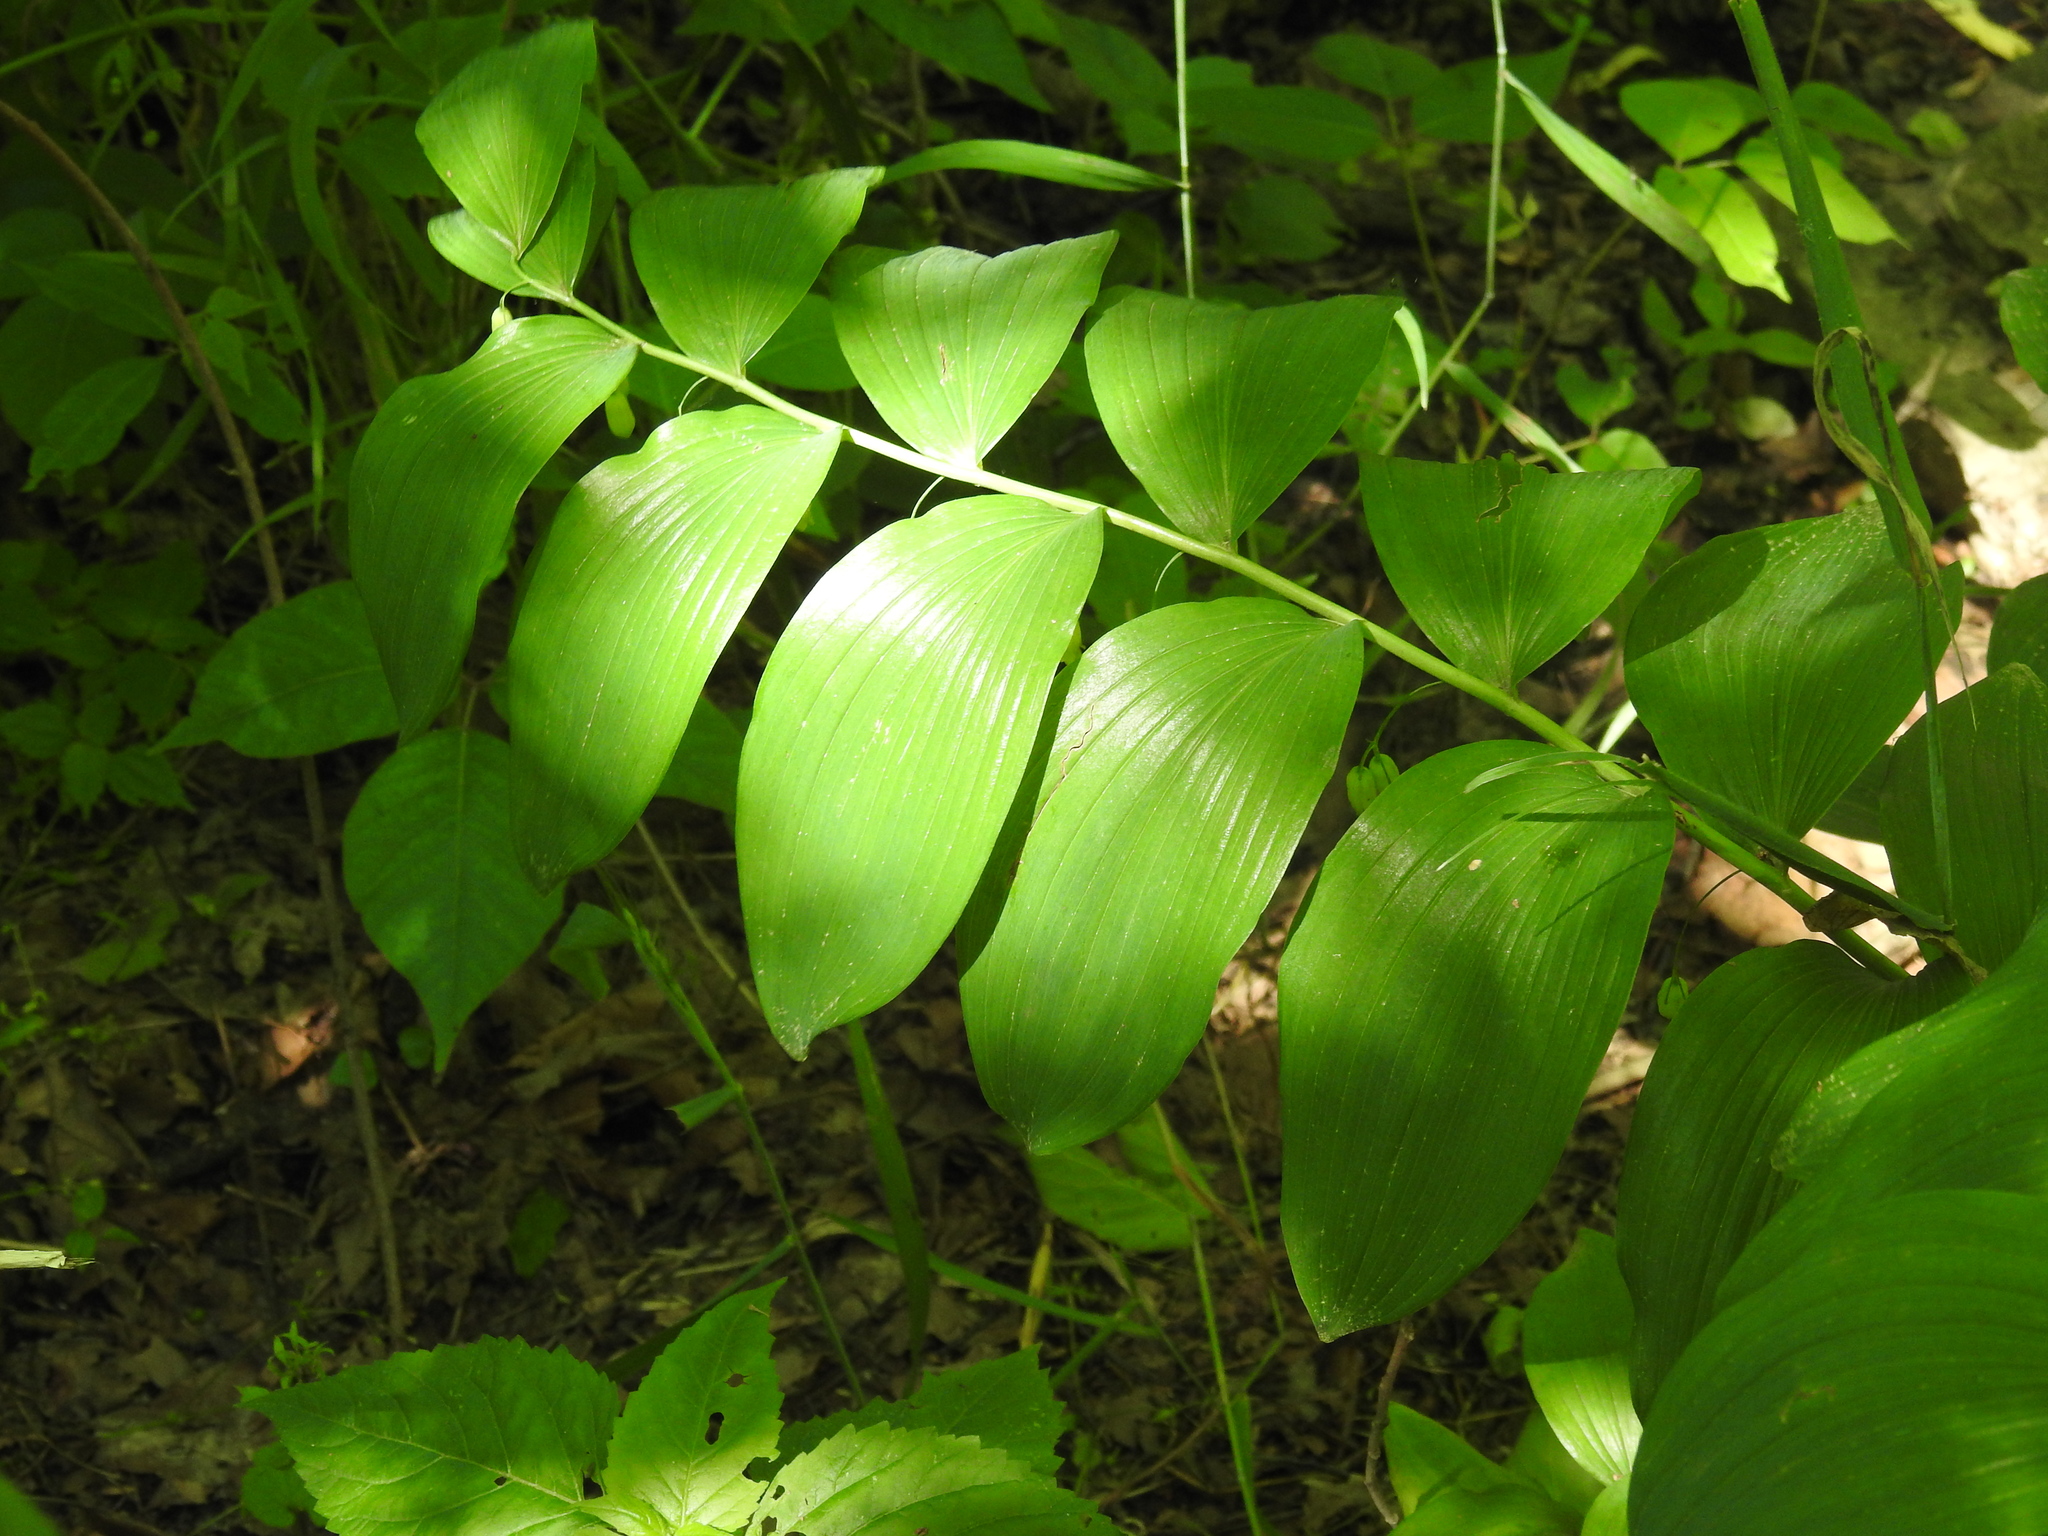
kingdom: Plantae
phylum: Tracheophyta
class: Liliopsida
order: Asparagales
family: Asparagaceae
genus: Polygonatum
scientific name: Polygonatum biflorum
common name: American solomon's-seal
